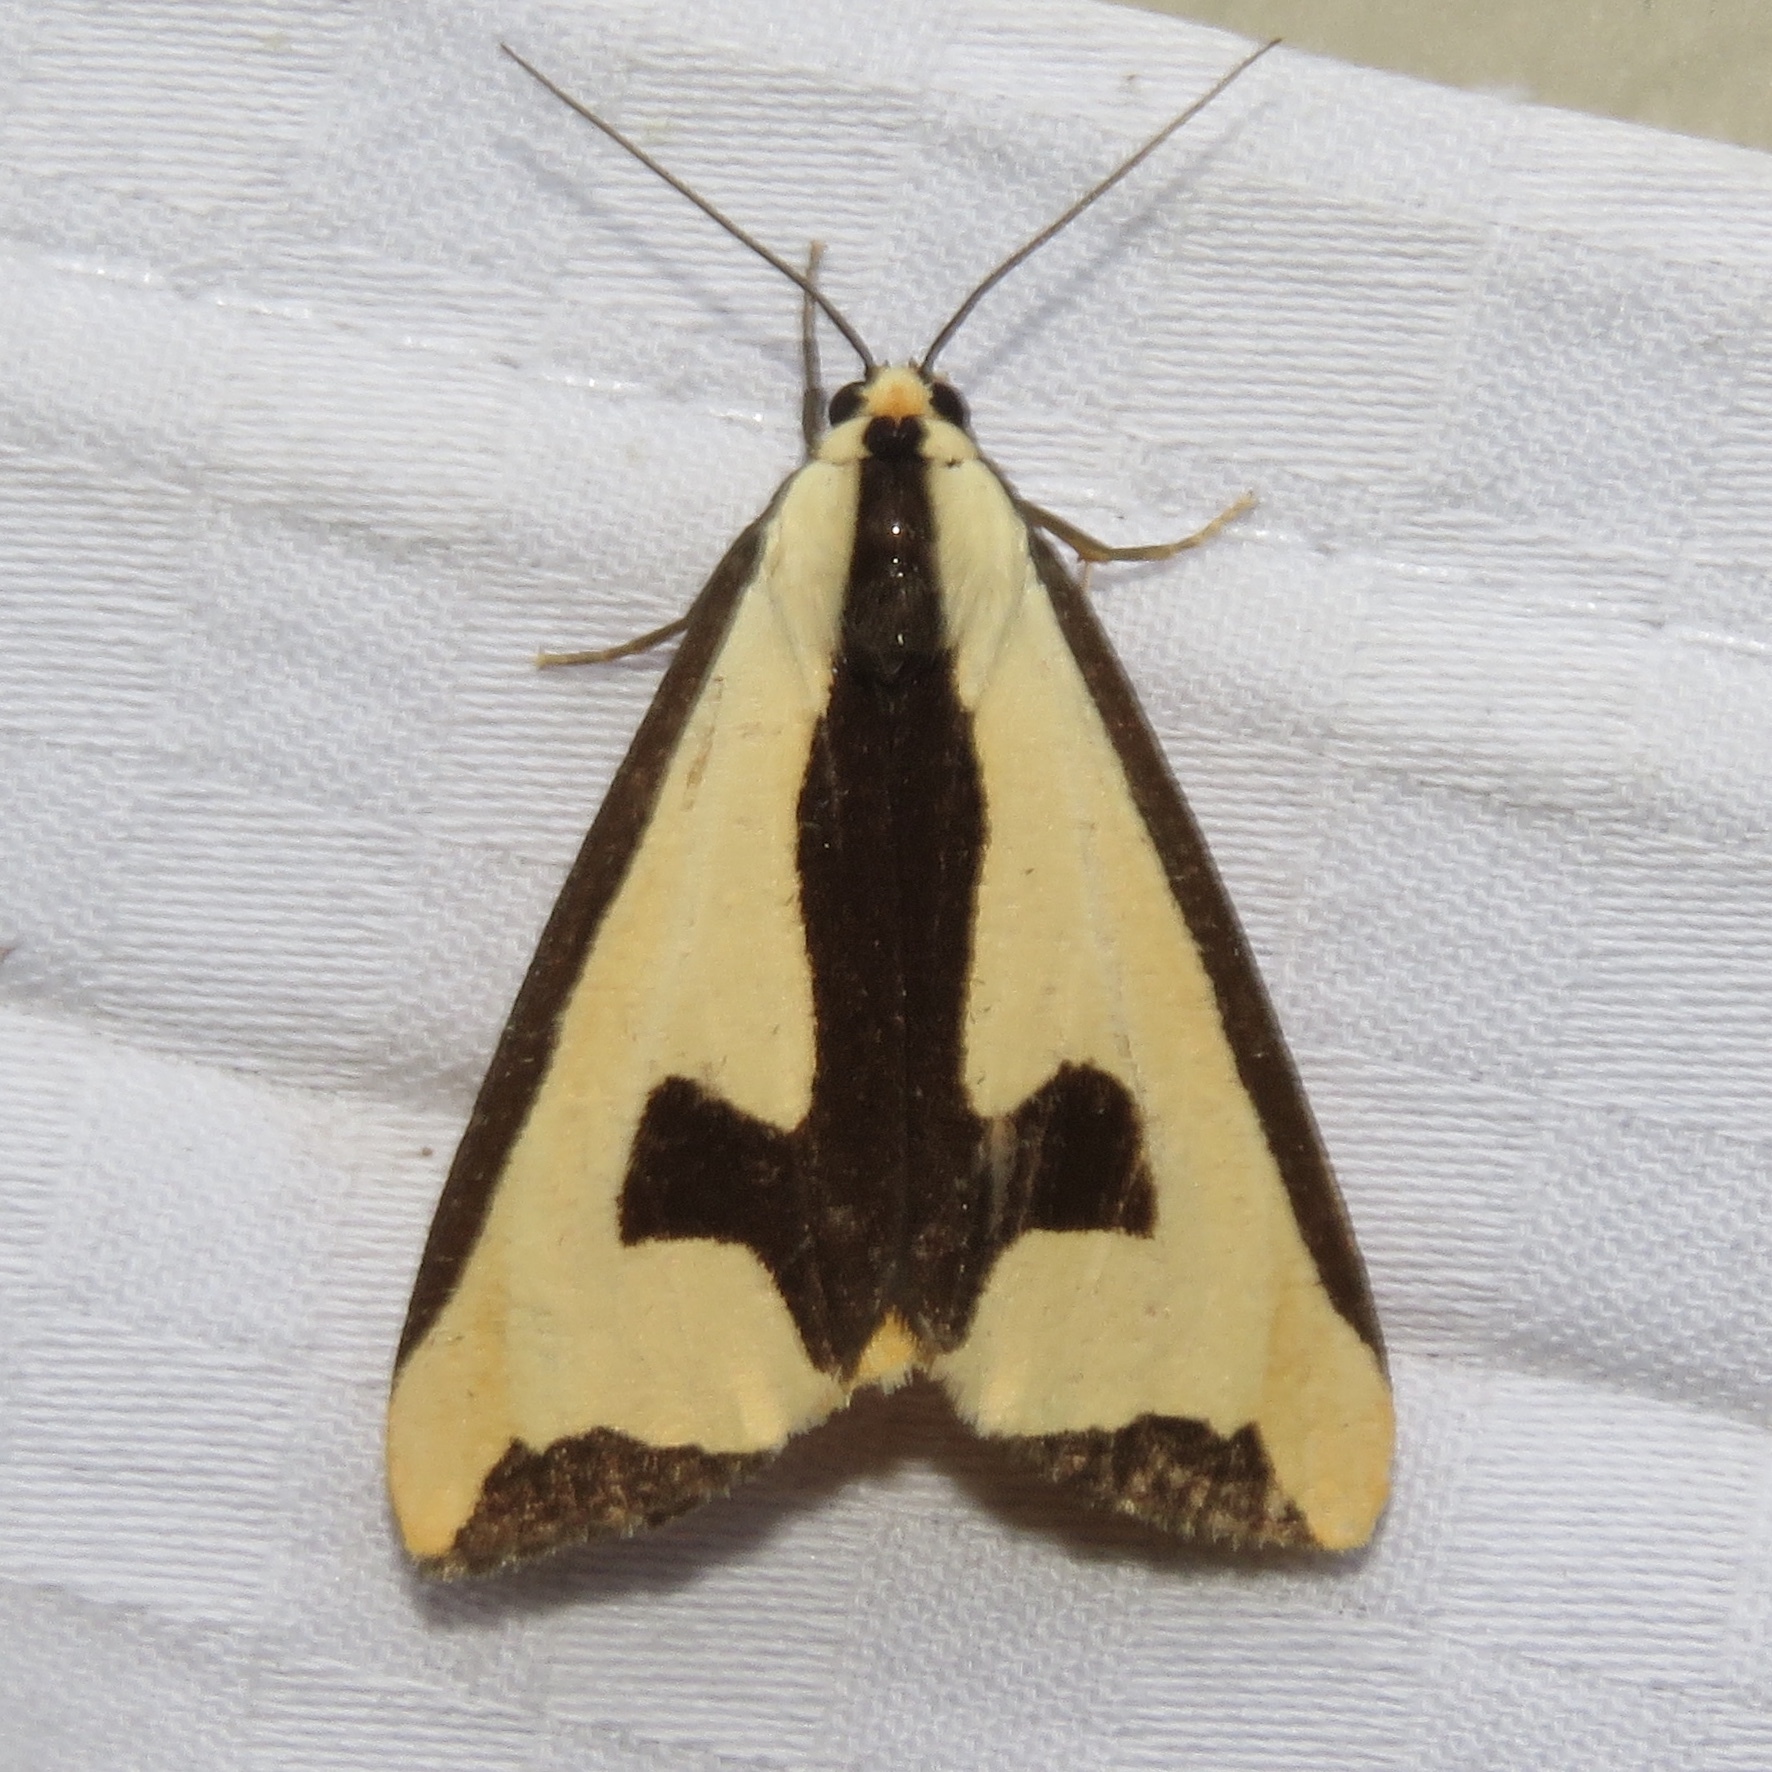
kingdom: Animalia
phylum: Arthropoda
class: Insecta
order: Lepidoptera
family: Erebidae
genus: Haploa
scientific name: Haploa clymene
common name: Clymene moth
